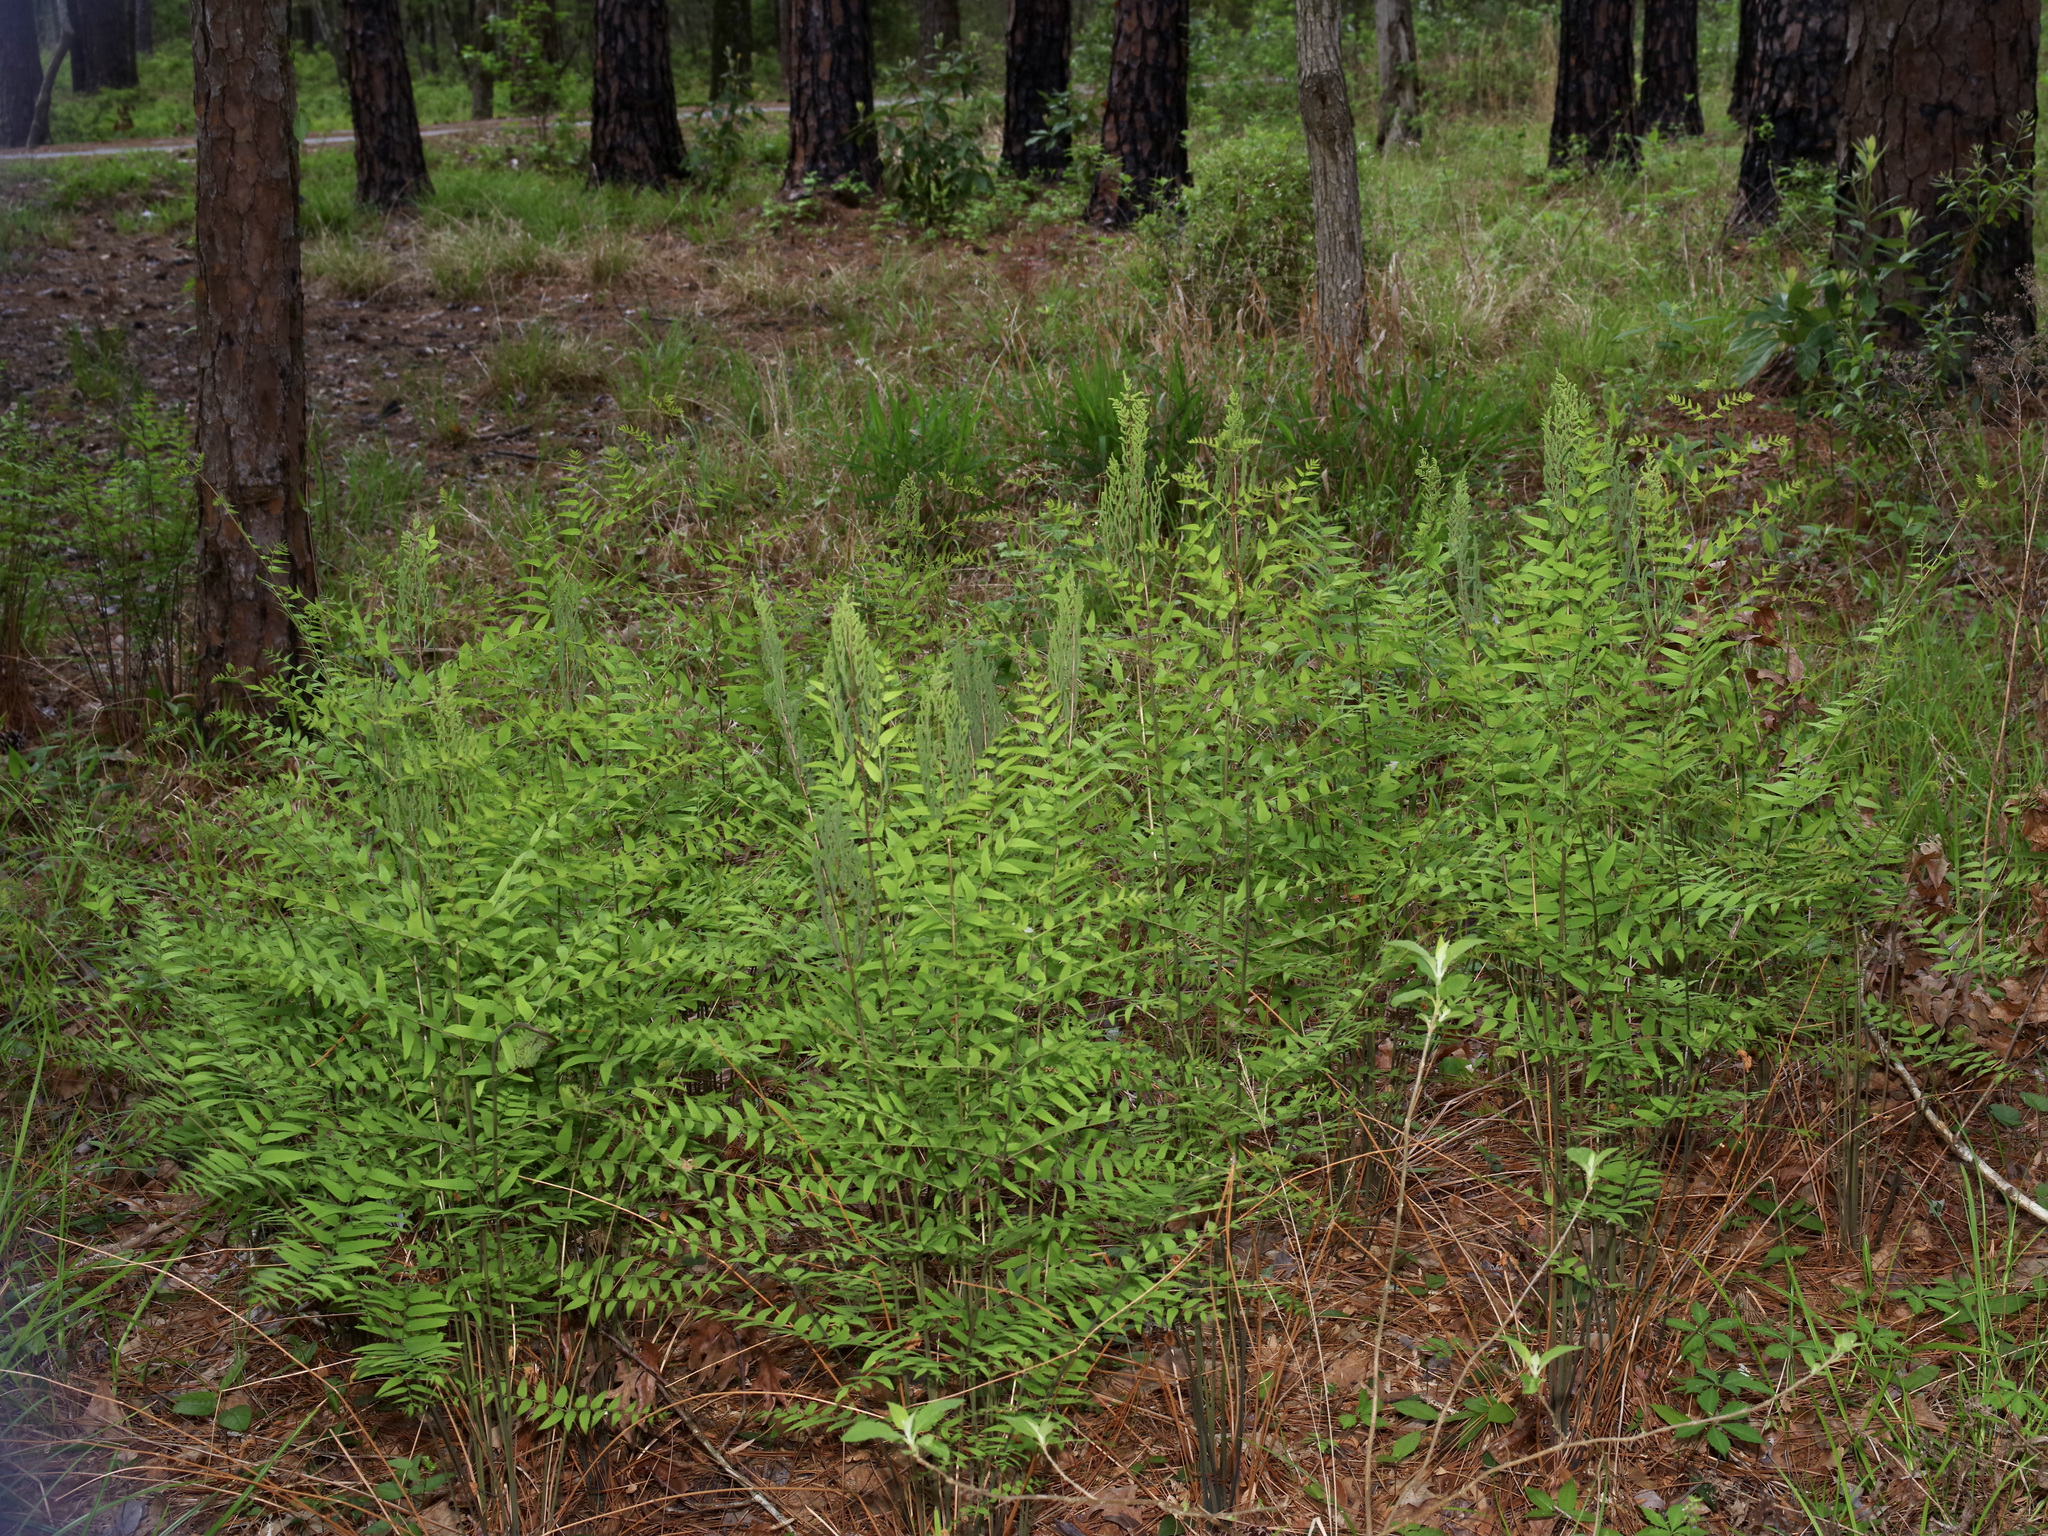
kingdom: Plantae
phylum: Tracheophyta
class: Polypodiopsida
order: Osmundales
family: Osmundaceae
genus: Osmunda
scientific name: Osmunda spectabilis
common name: American royal fern
